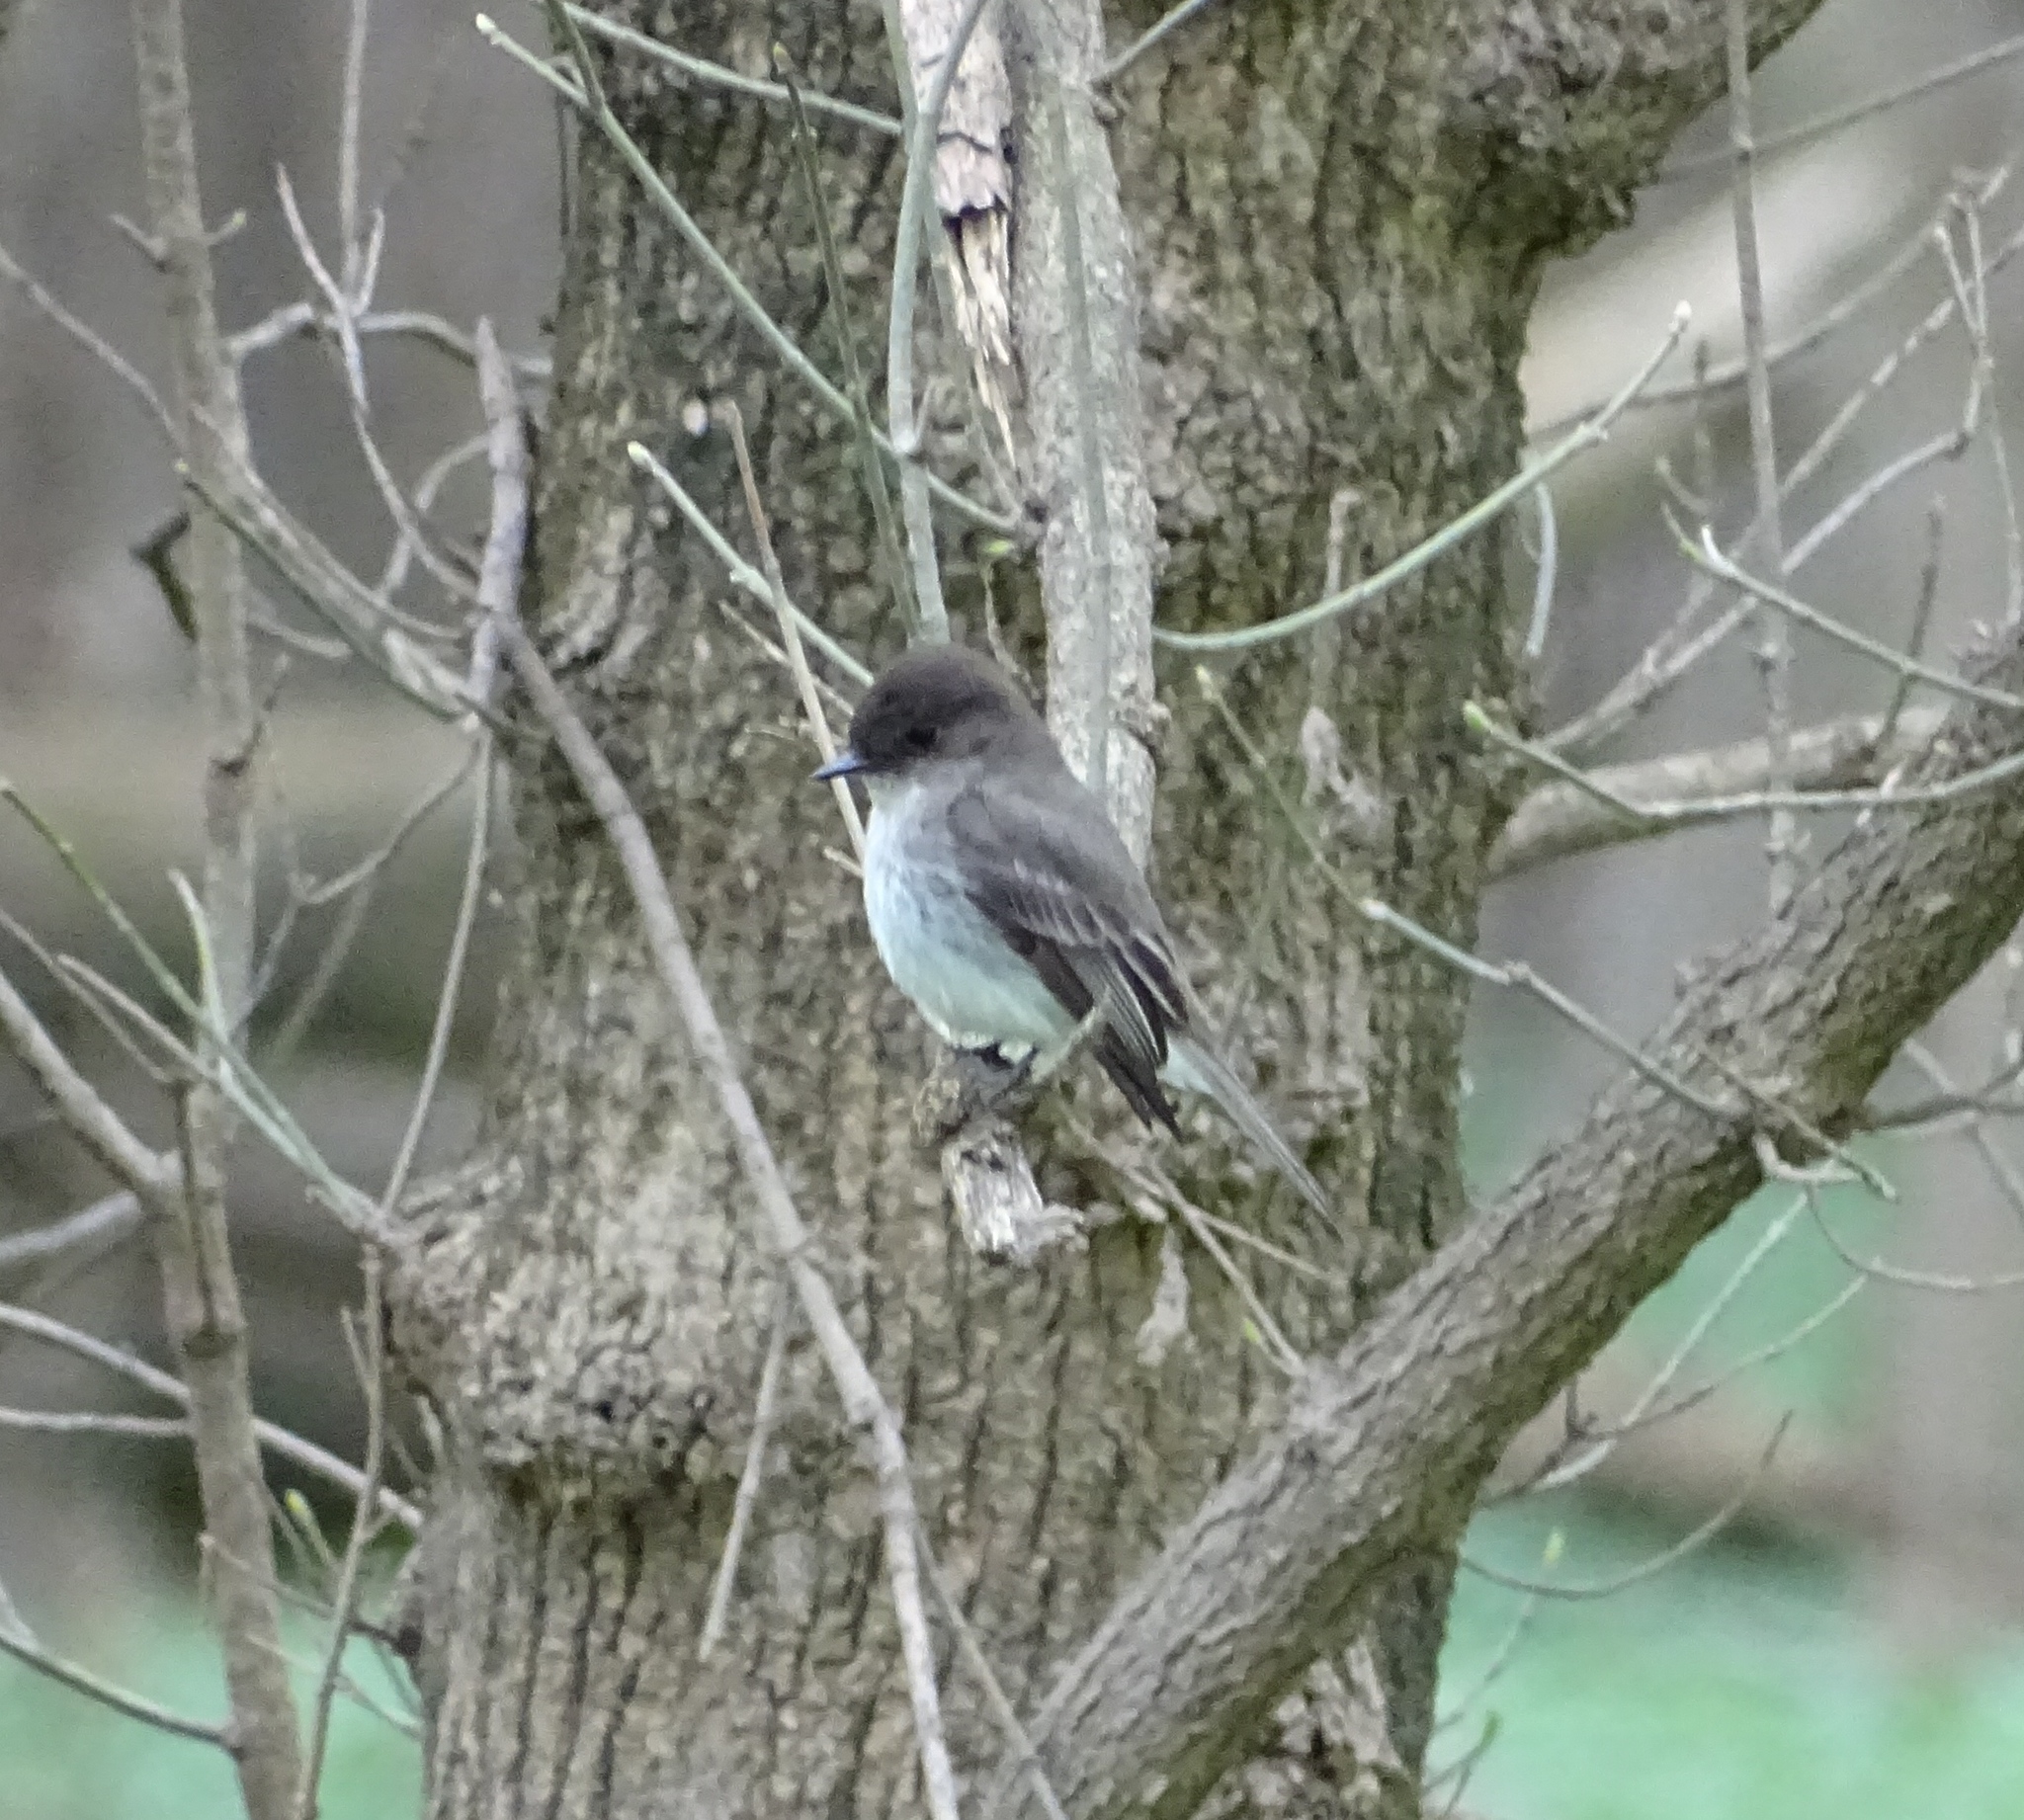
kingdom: Animalia
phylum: Chordata
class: Aves
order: Passeriformes
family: Tyrannidae
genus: Sayornis
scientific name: Sayornis phoebe
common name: Eastern phoebe
